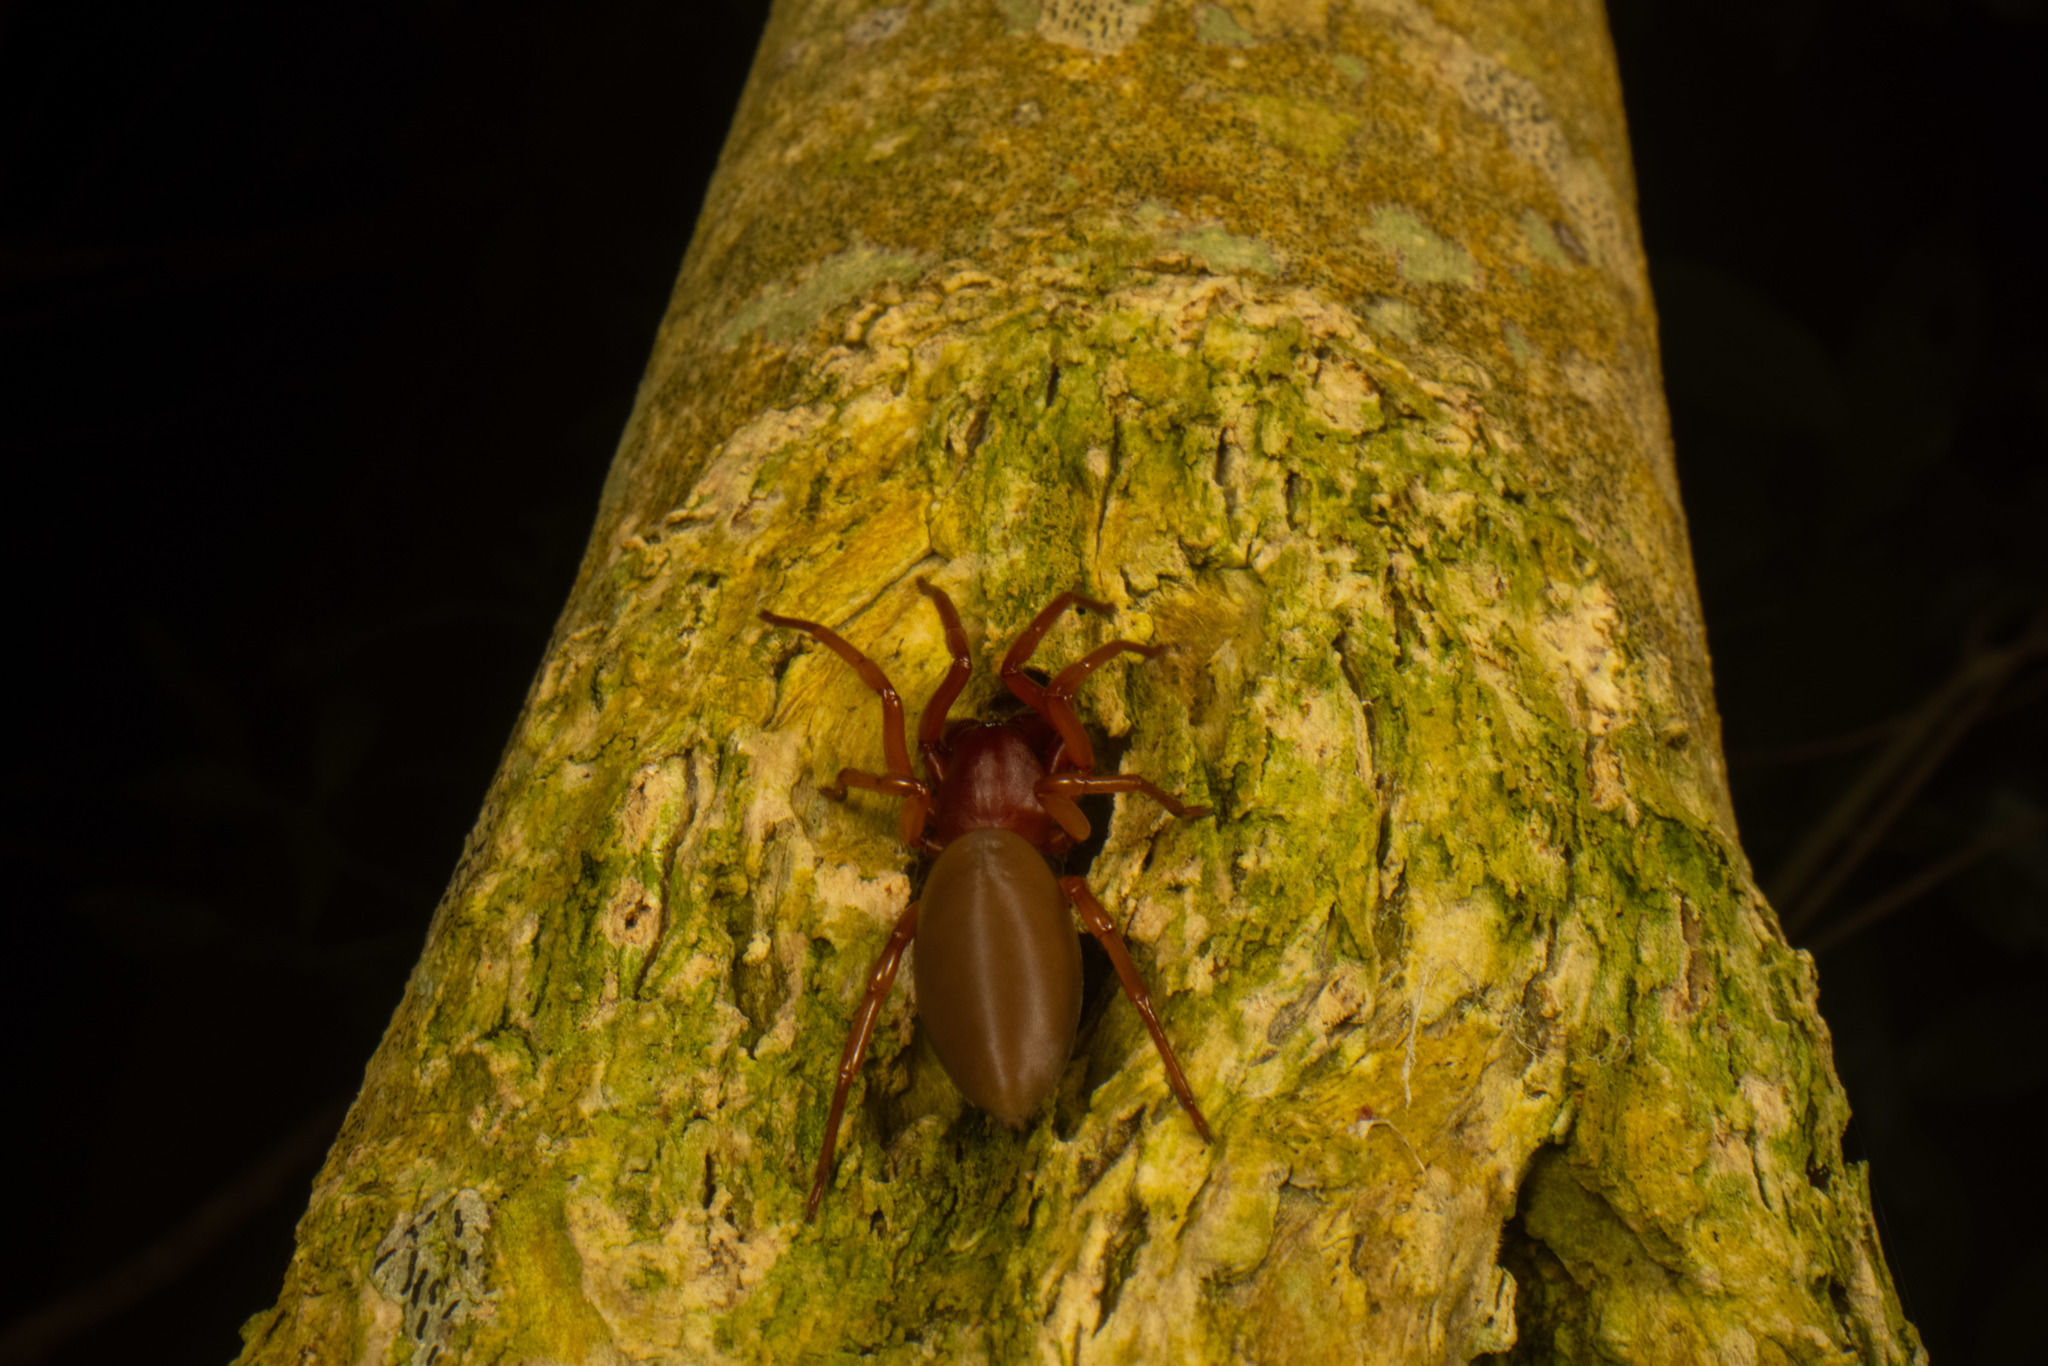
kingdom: Animalia
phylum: Arthropoda
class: Arachnida
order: Araneae
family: Dysderidae
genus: Dysdera
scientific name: Dysdera crocata
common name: Woodlouse spider
